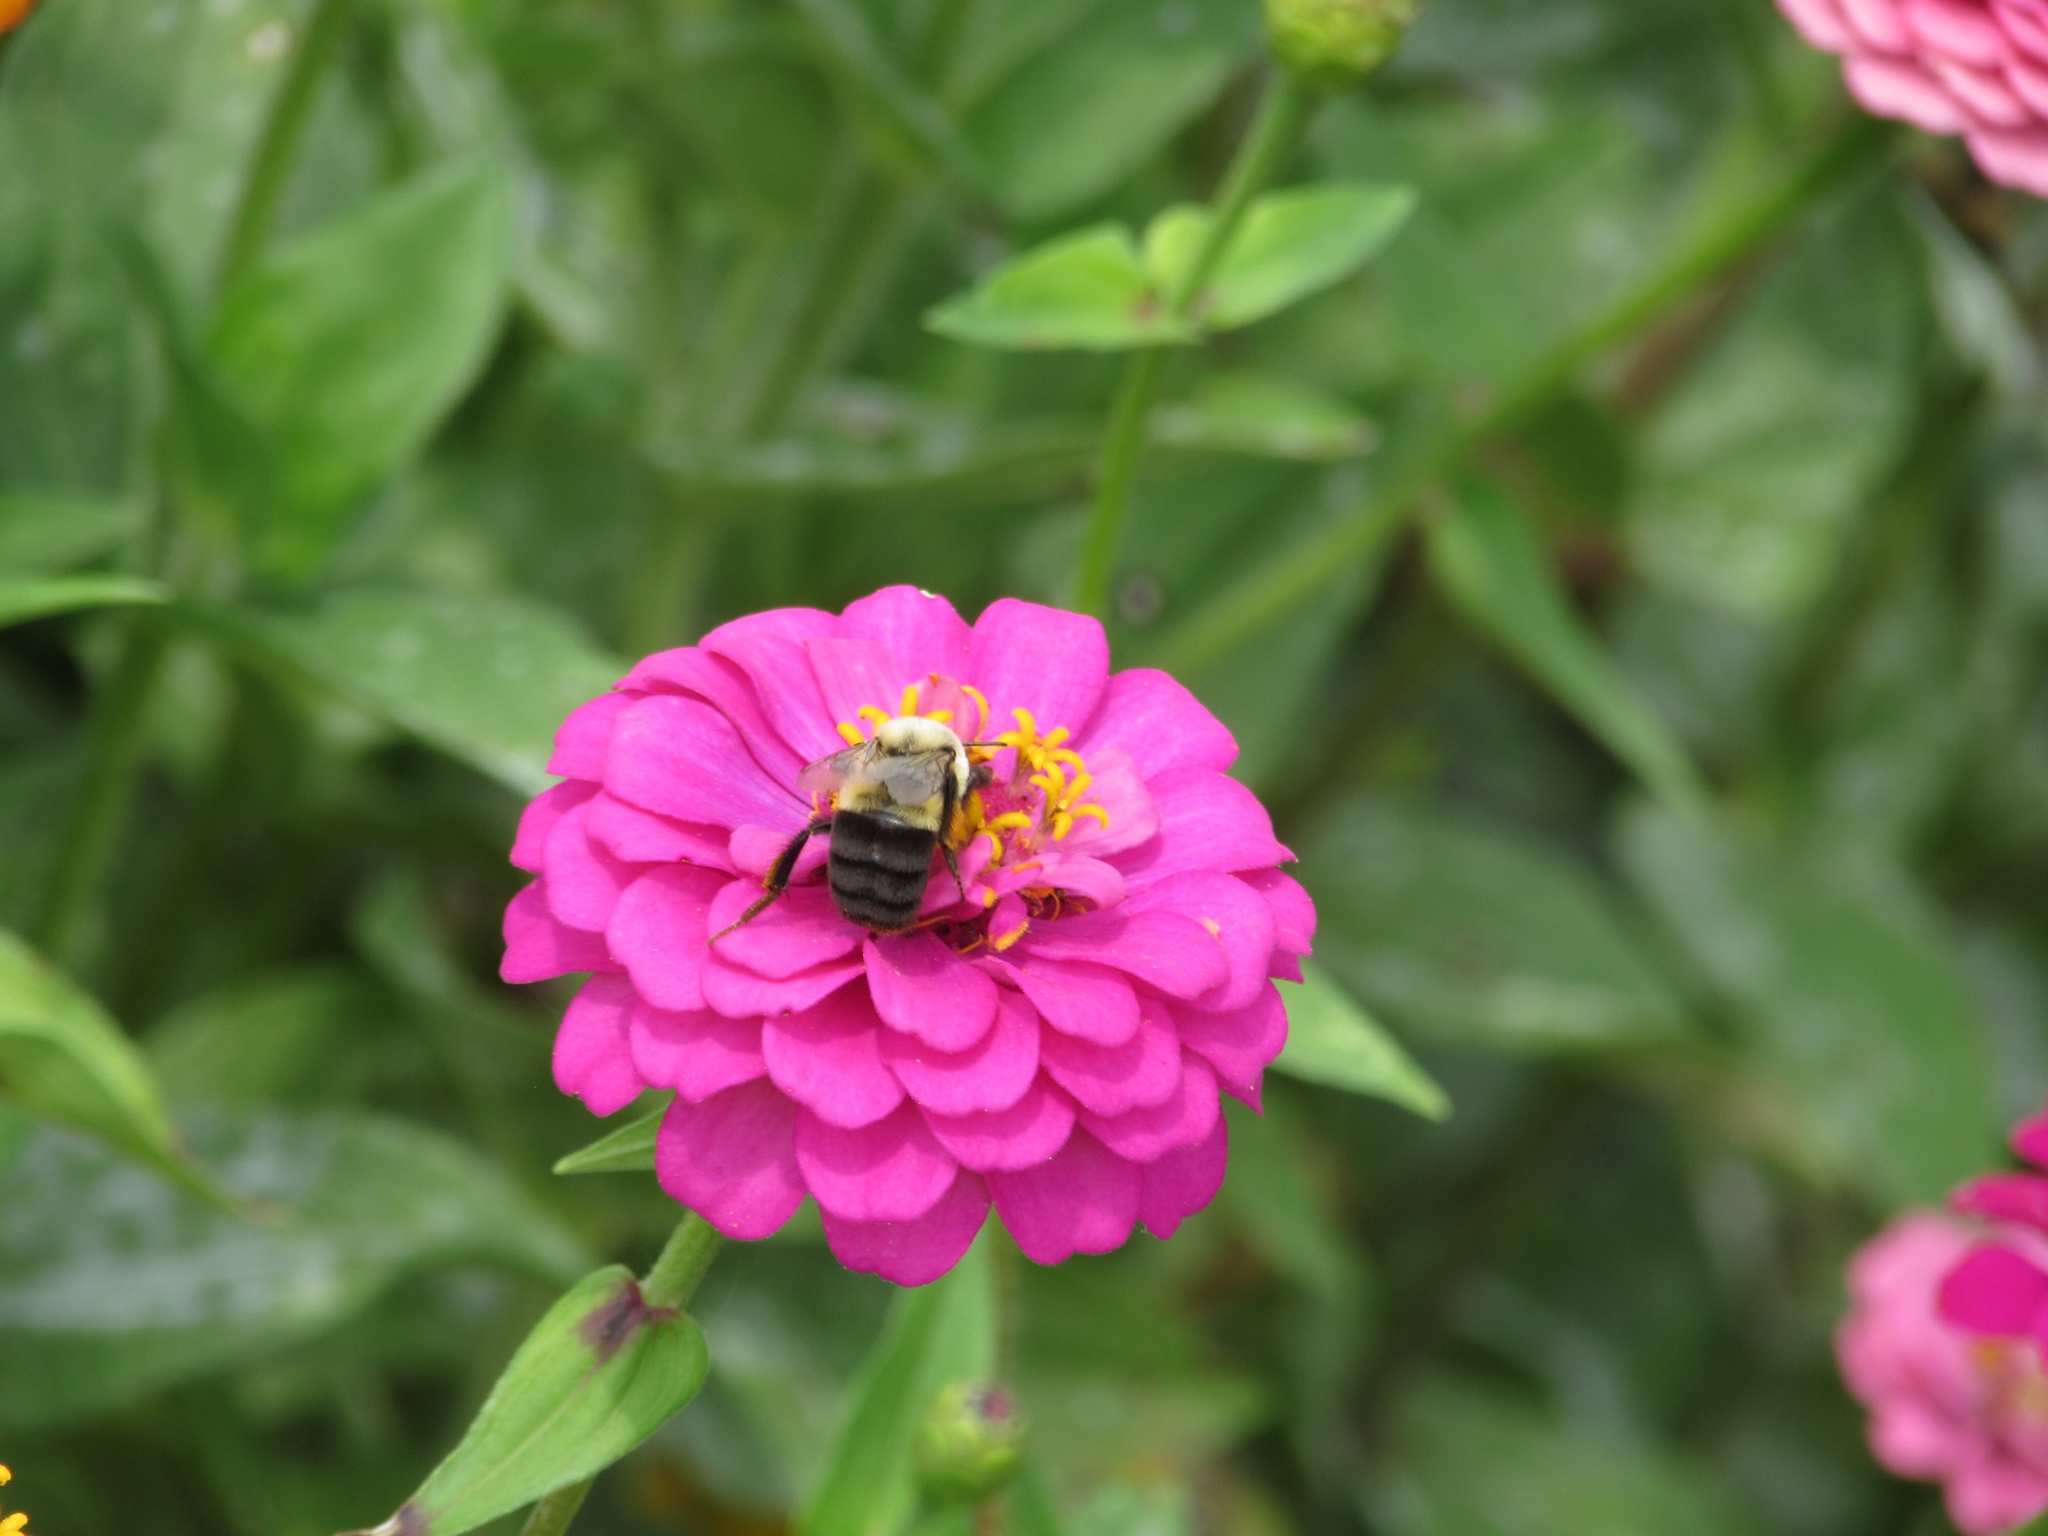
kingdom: Animalia
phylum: Arthropoda
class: Insecta
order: Hymenoptera
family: Apidae
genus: Bombus
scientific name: Bombus impatiens
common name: Common eastern bumble bee
